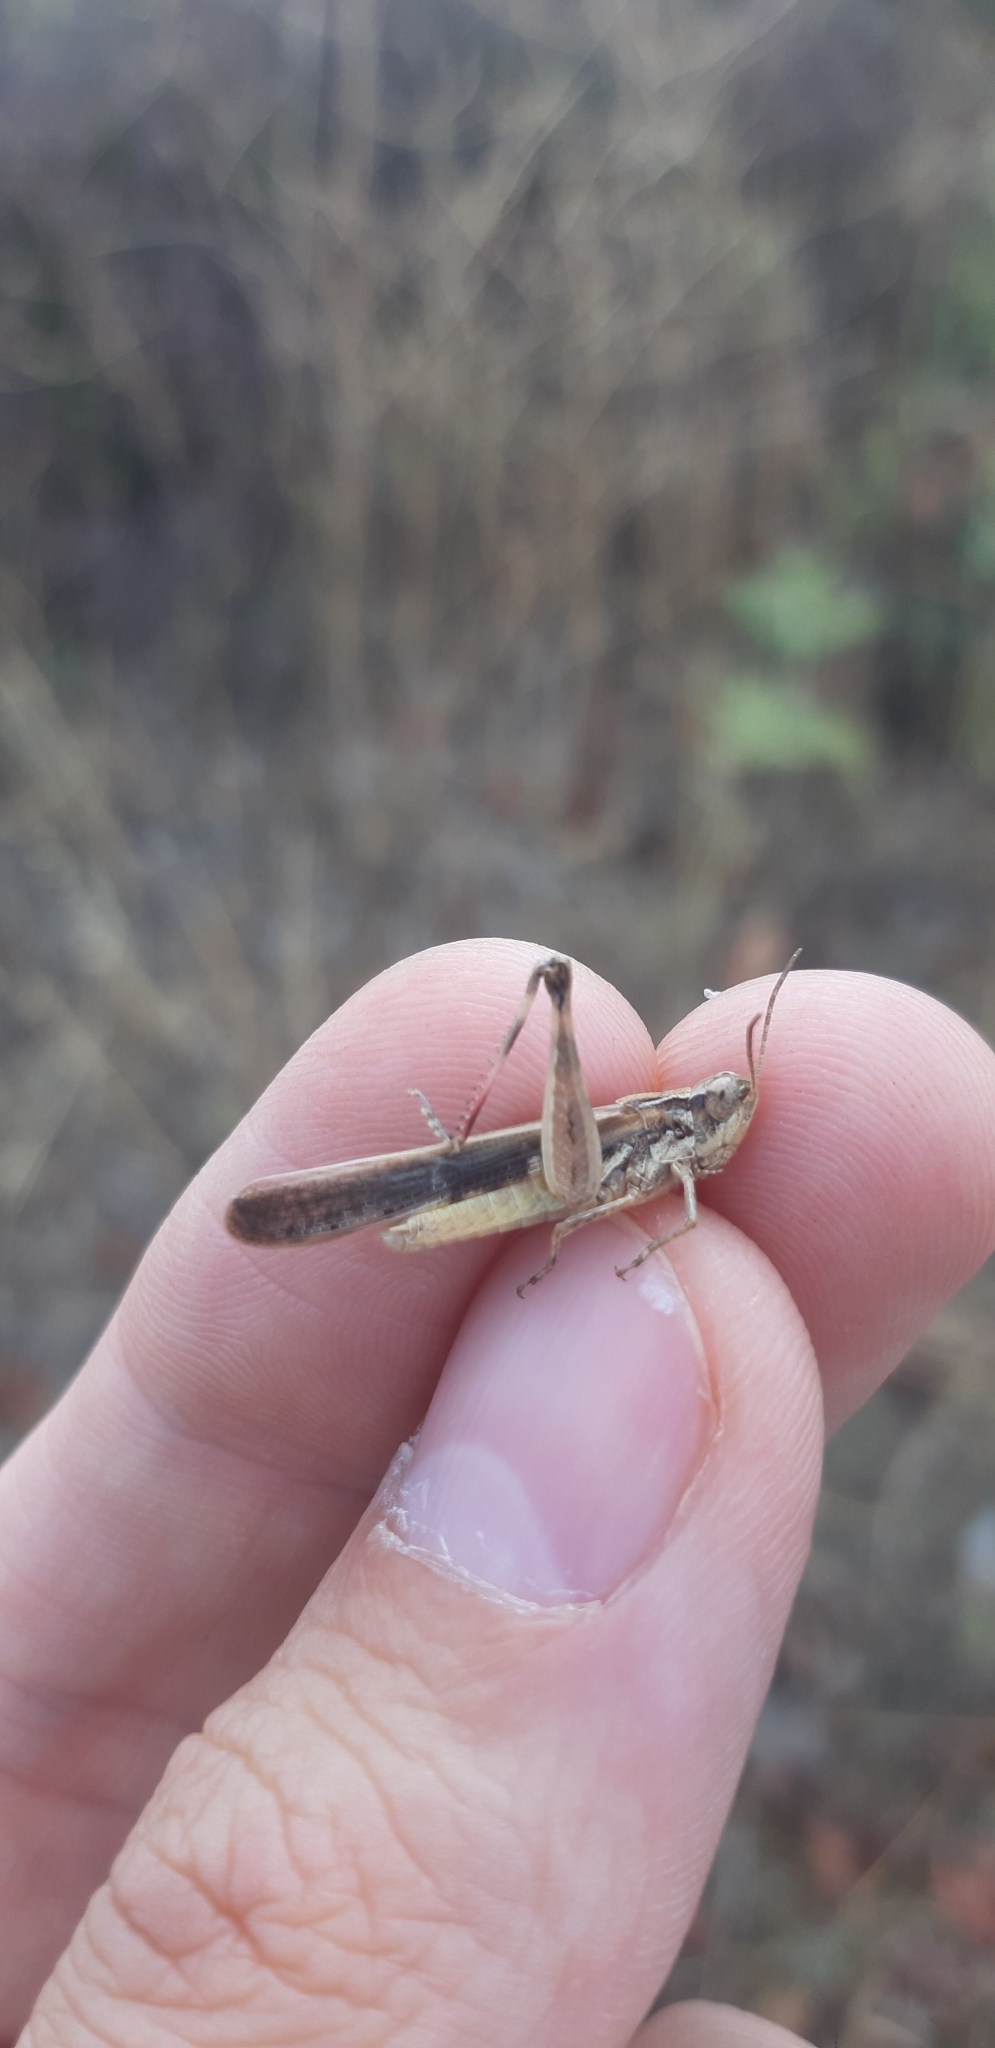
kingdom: Animalia
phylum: Arthropoda
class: Insecta
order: Orthoptera
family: Acrididae
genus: Aiolopus
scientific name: Aiolopus puissanti
